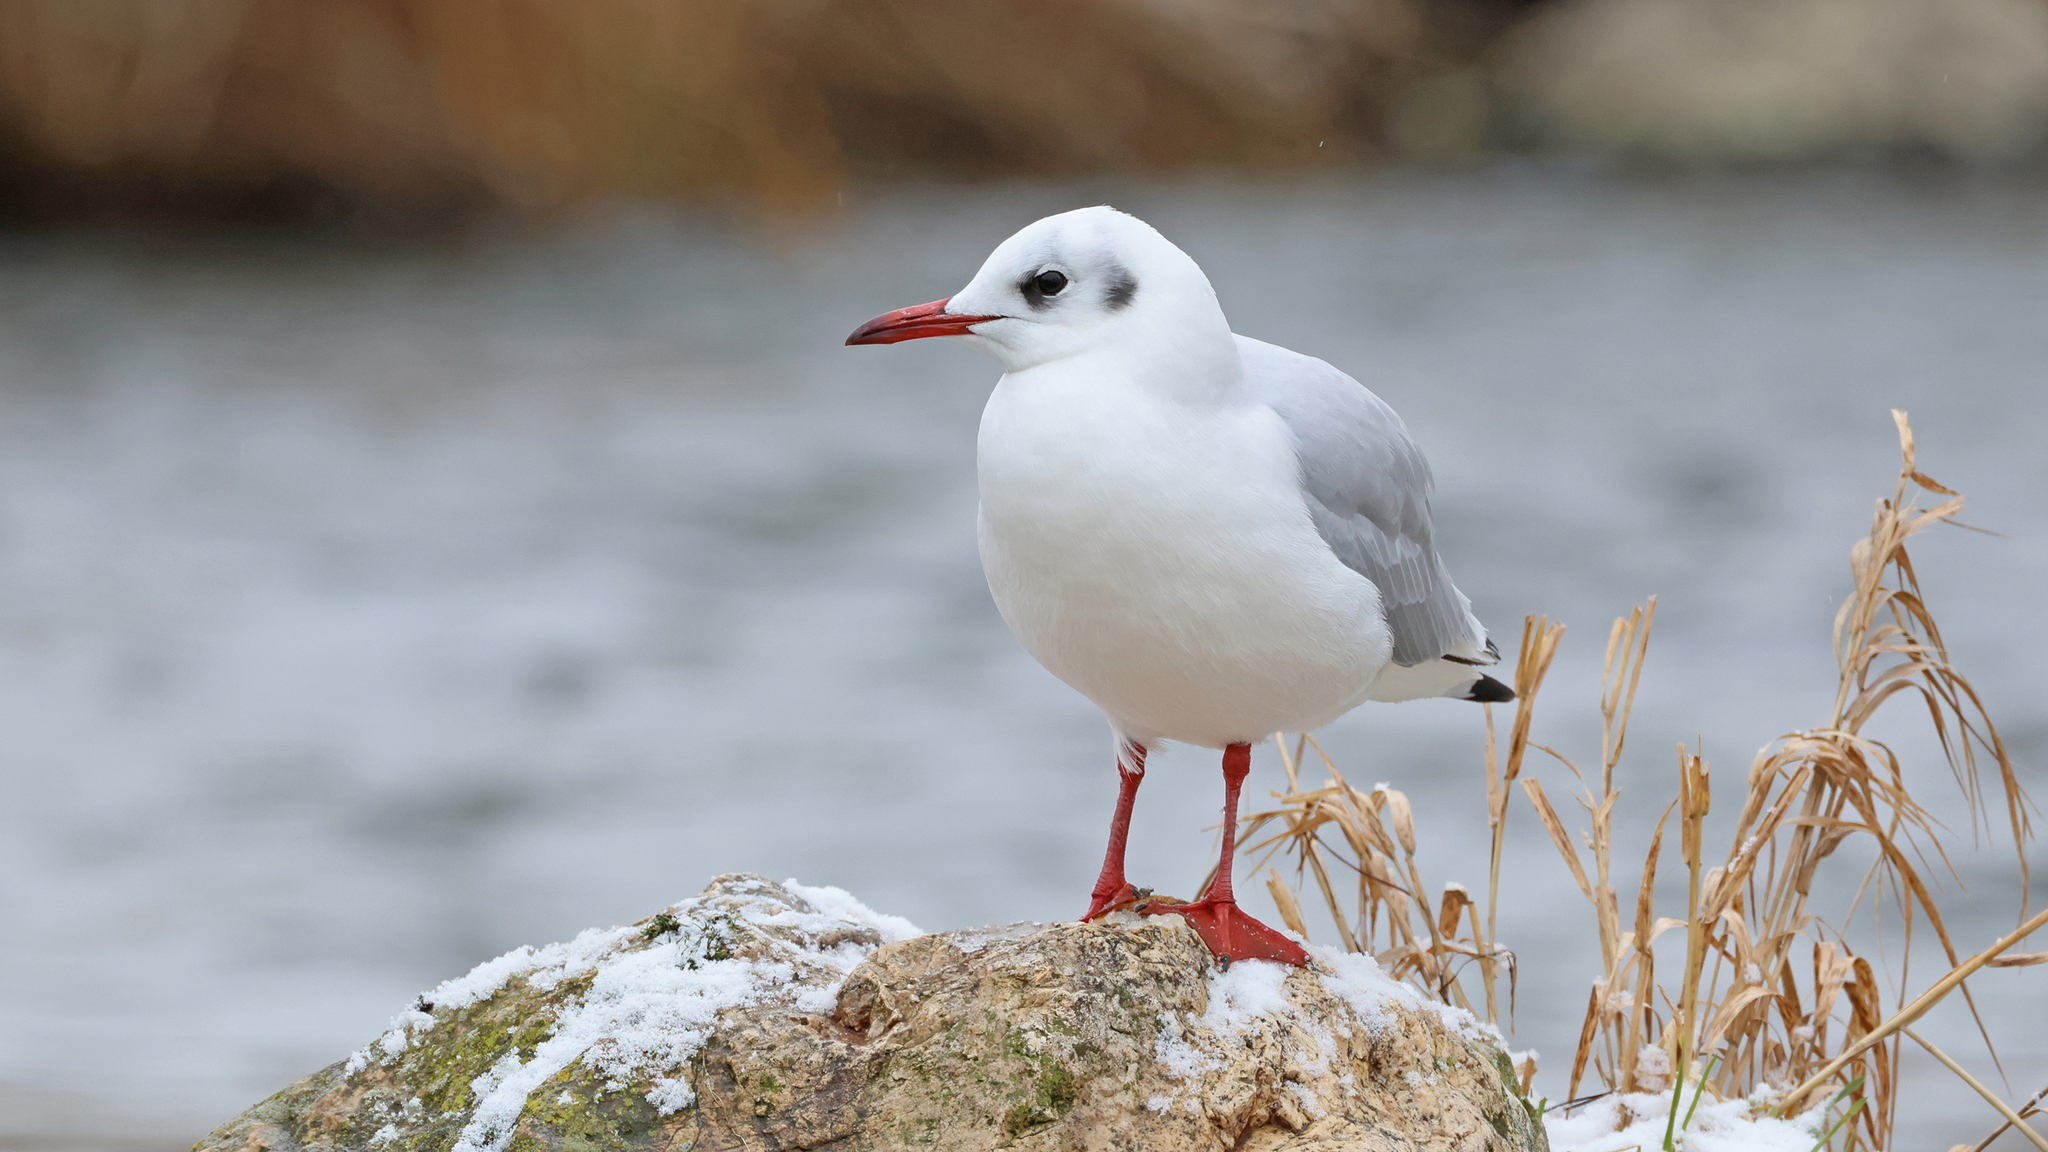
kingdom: Animalia
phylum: Chordata
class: Aves
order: Charadriiformes
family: Laridae
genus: Chroicocephalus
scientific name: Chroicocephalus ridibundus
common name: Black-headed gull
